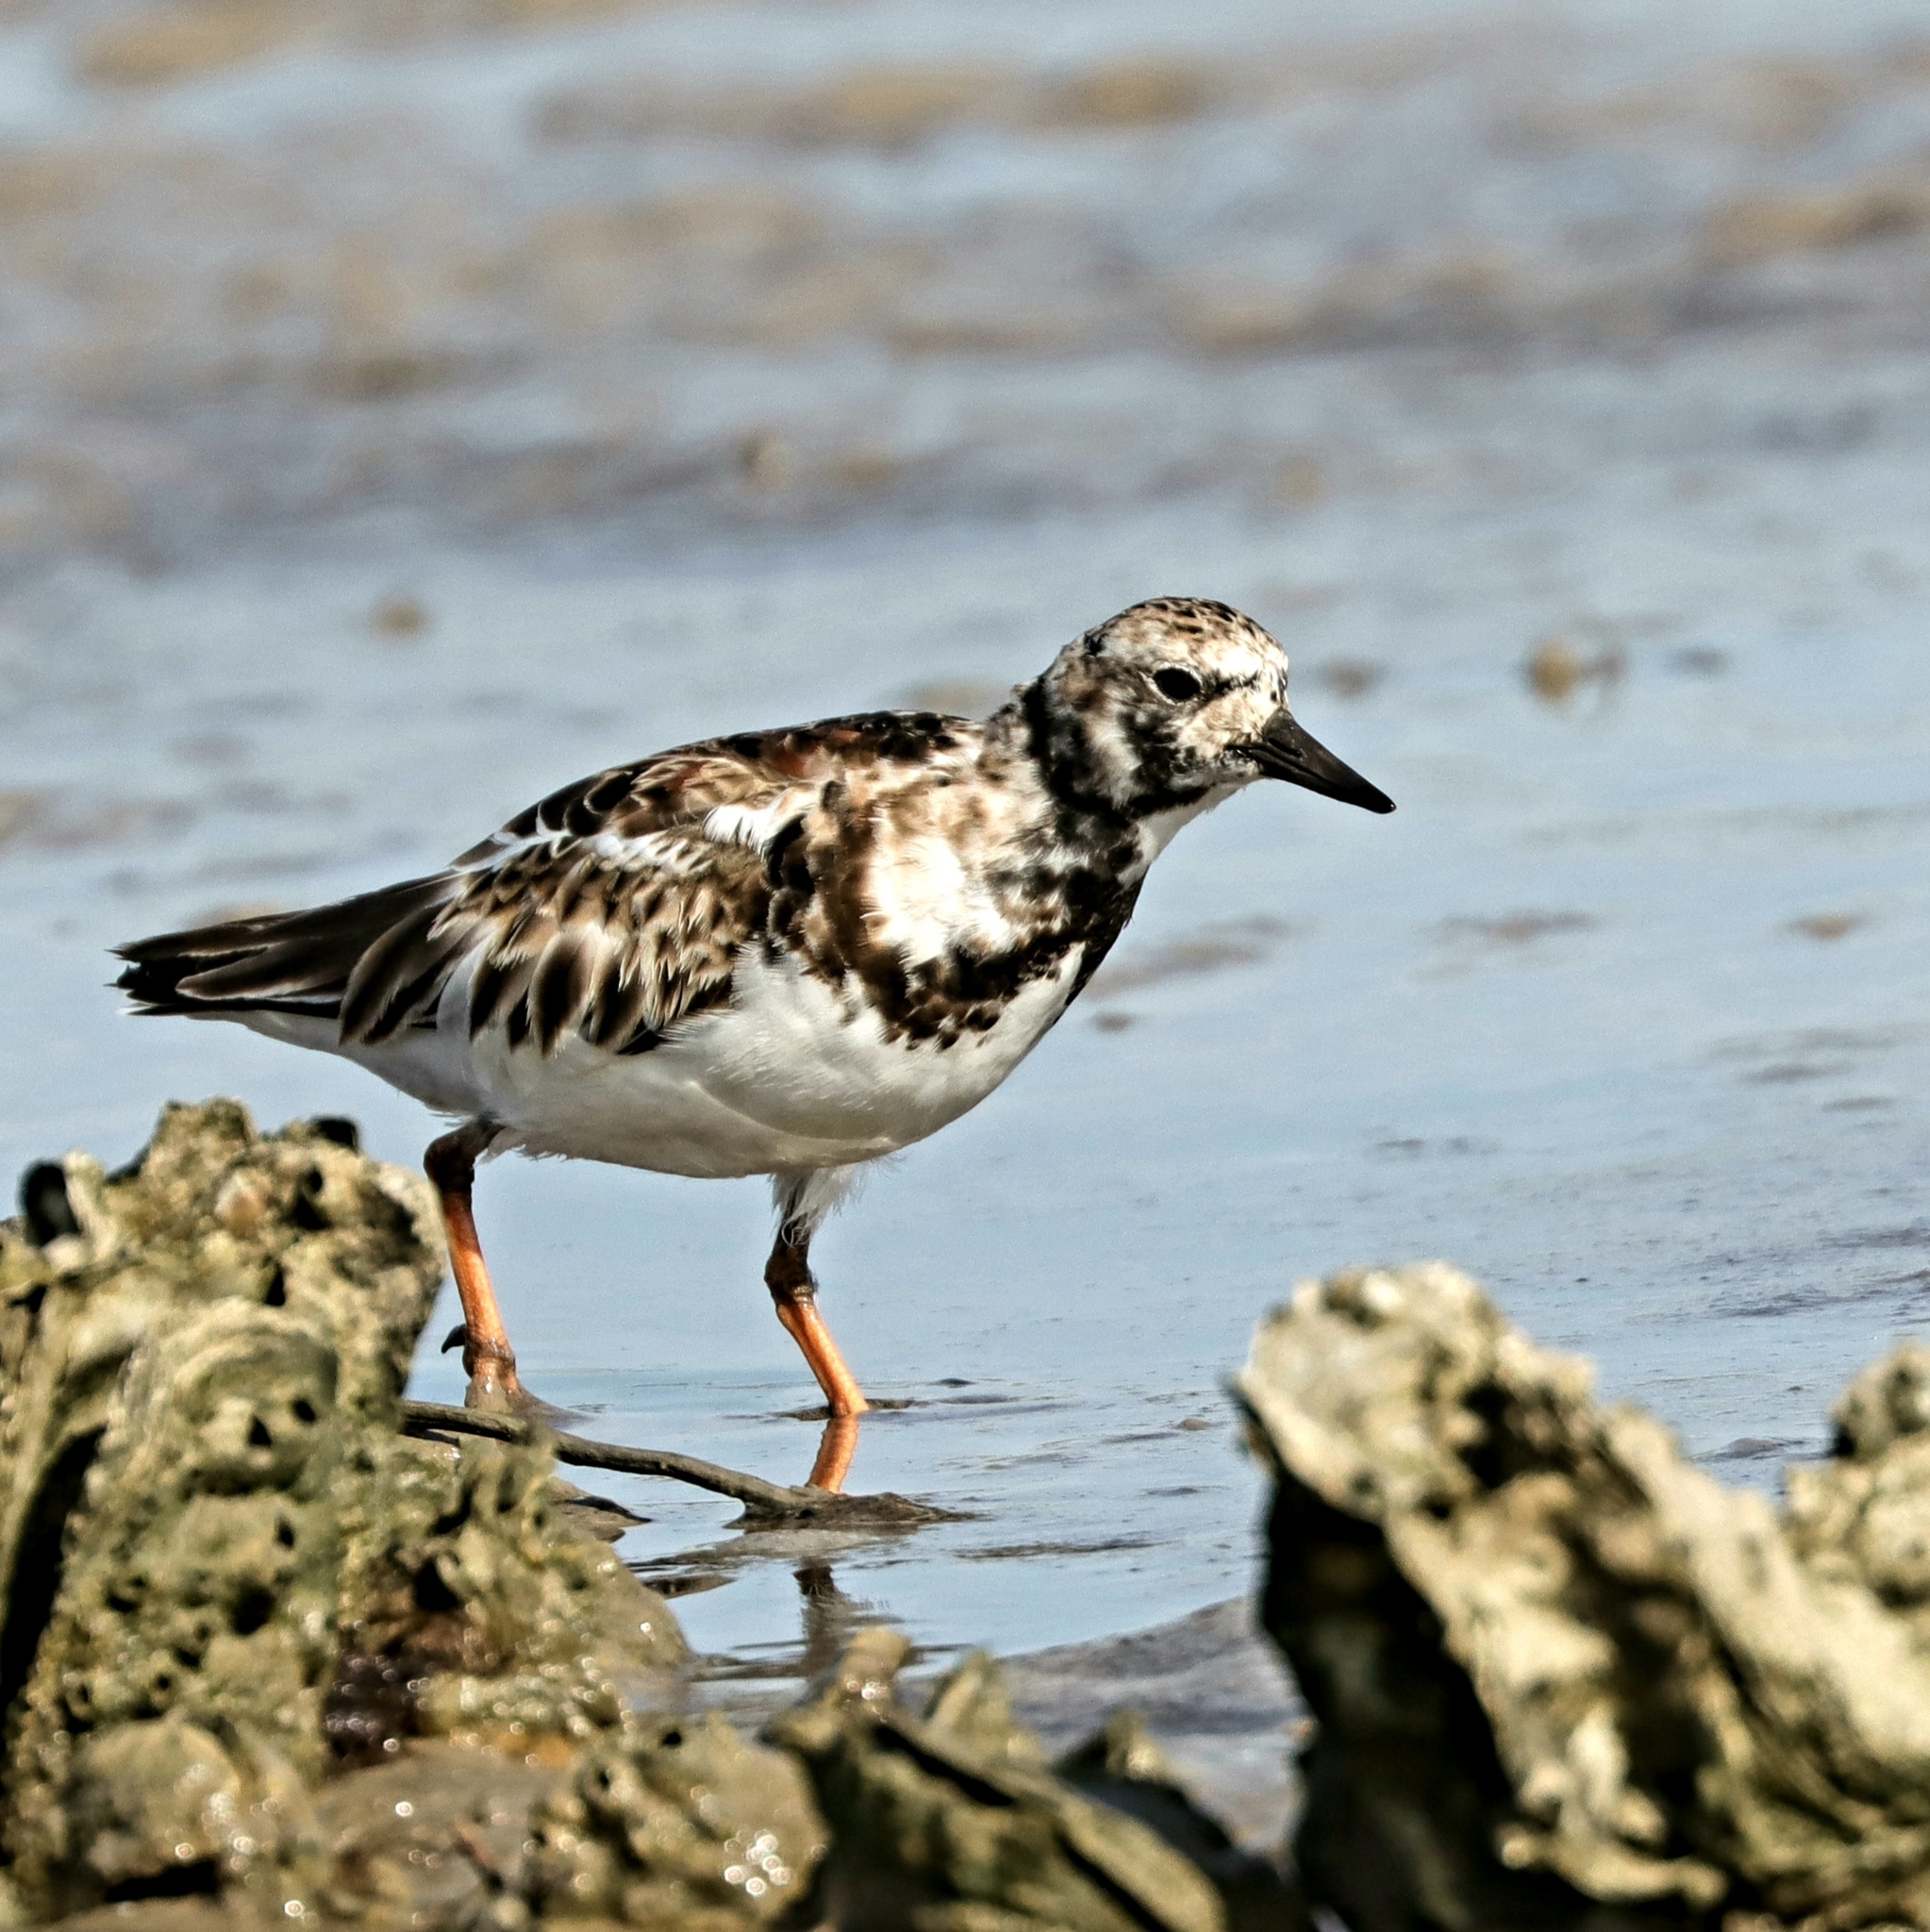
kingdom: Animalia
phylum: Chordata
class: Aves
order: Charadriiformes
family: Scolopacidae
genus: Arenaria
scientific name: Arenaria interpres
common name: Ruddy turnstone
